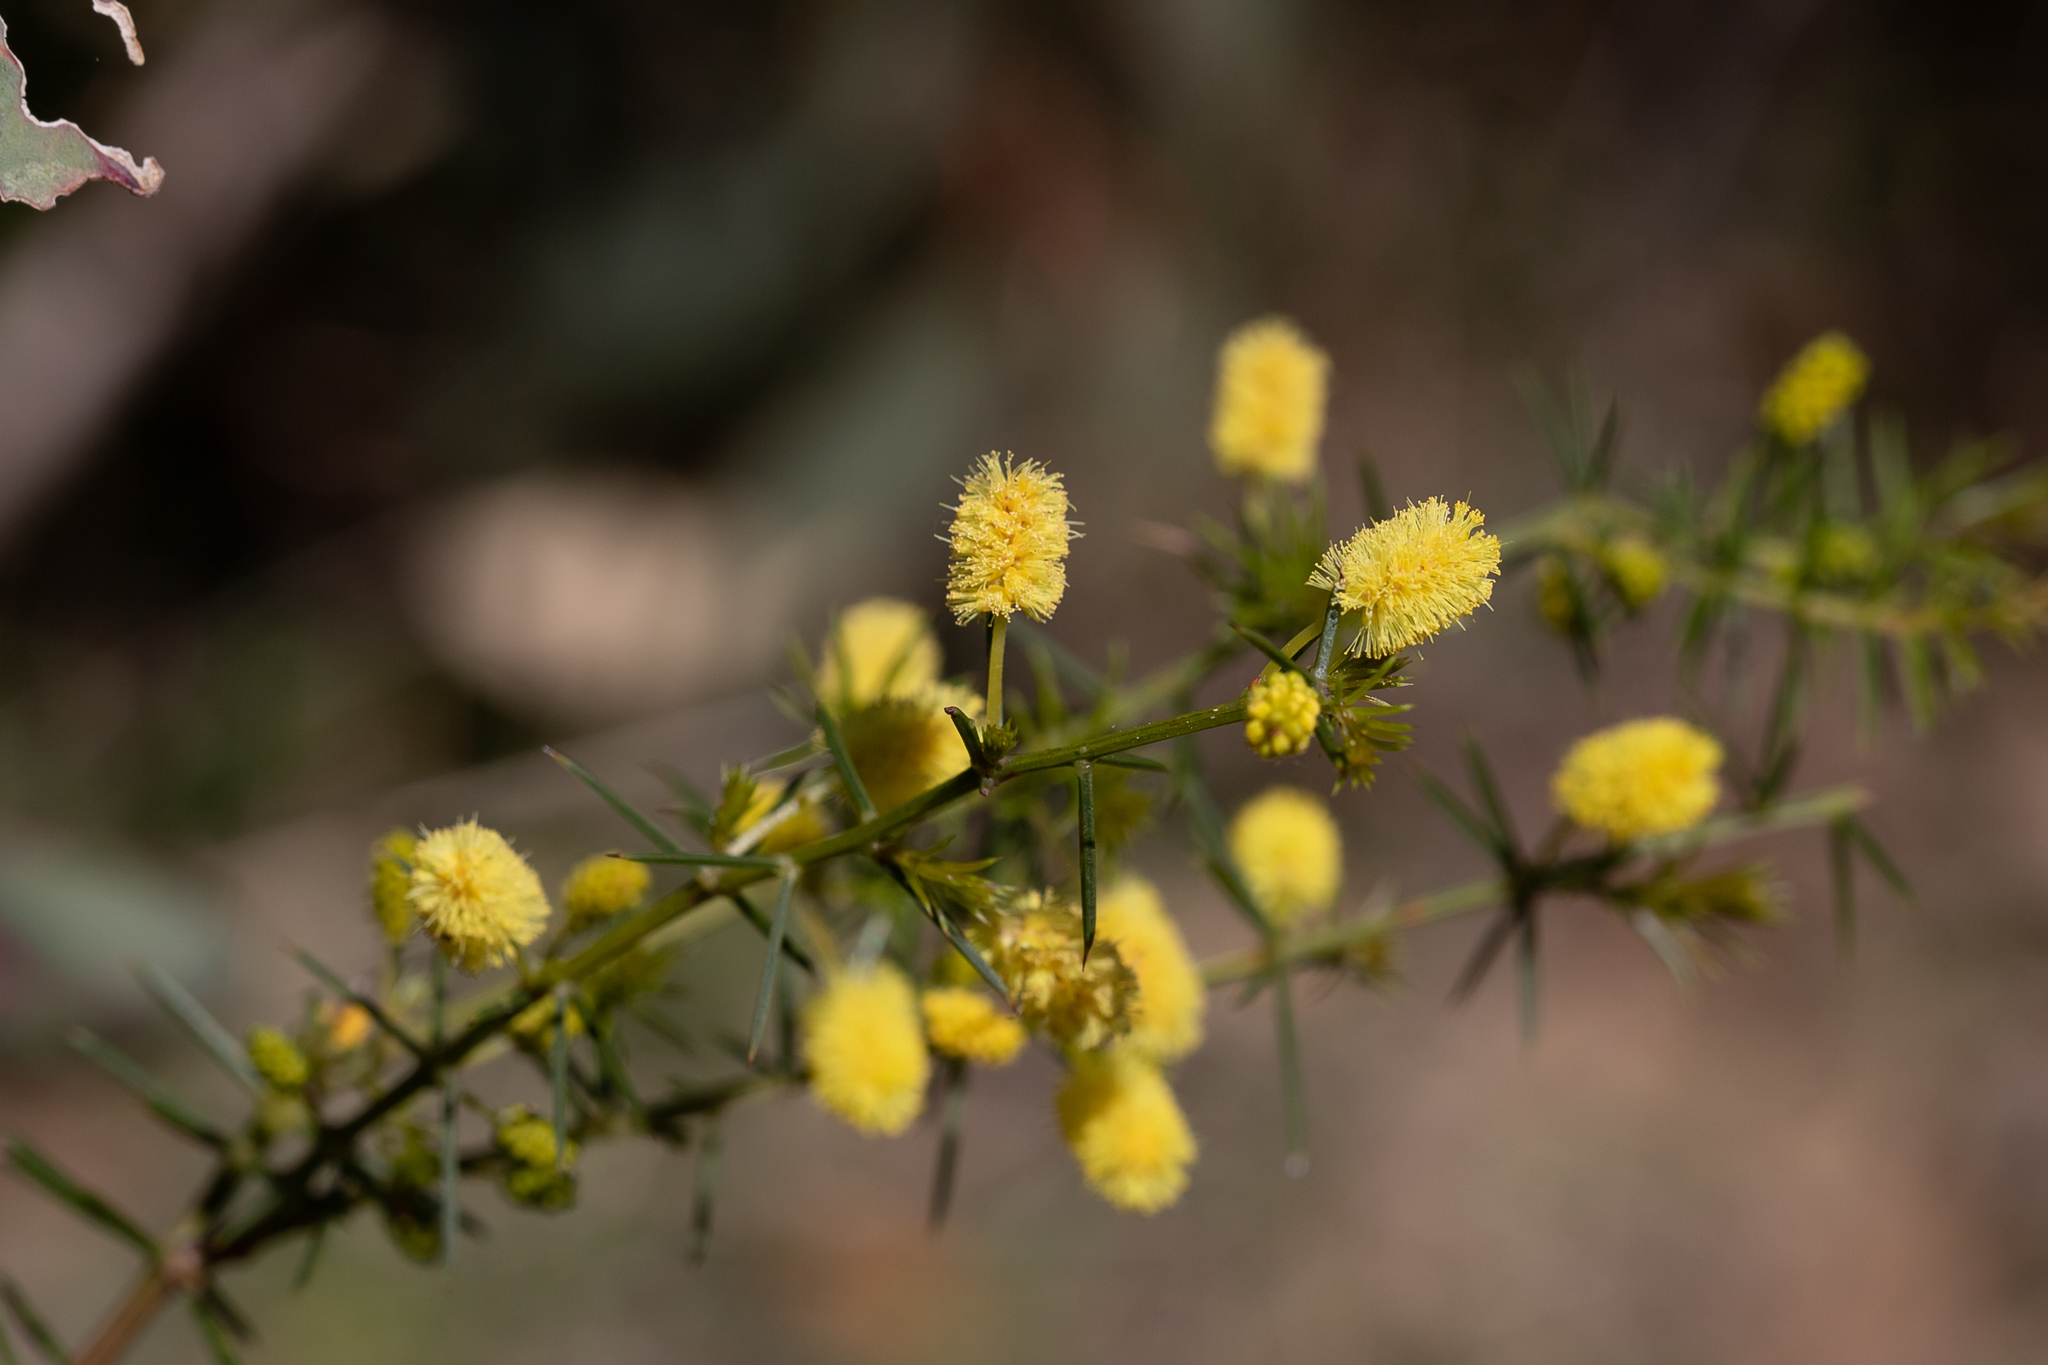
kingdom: Plantae
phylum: Tracheophyta
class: Magnoliopsida
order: Fabales
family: Fabaceae
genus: Acacia
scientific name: Acacia verticillata
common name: Prickly moses
